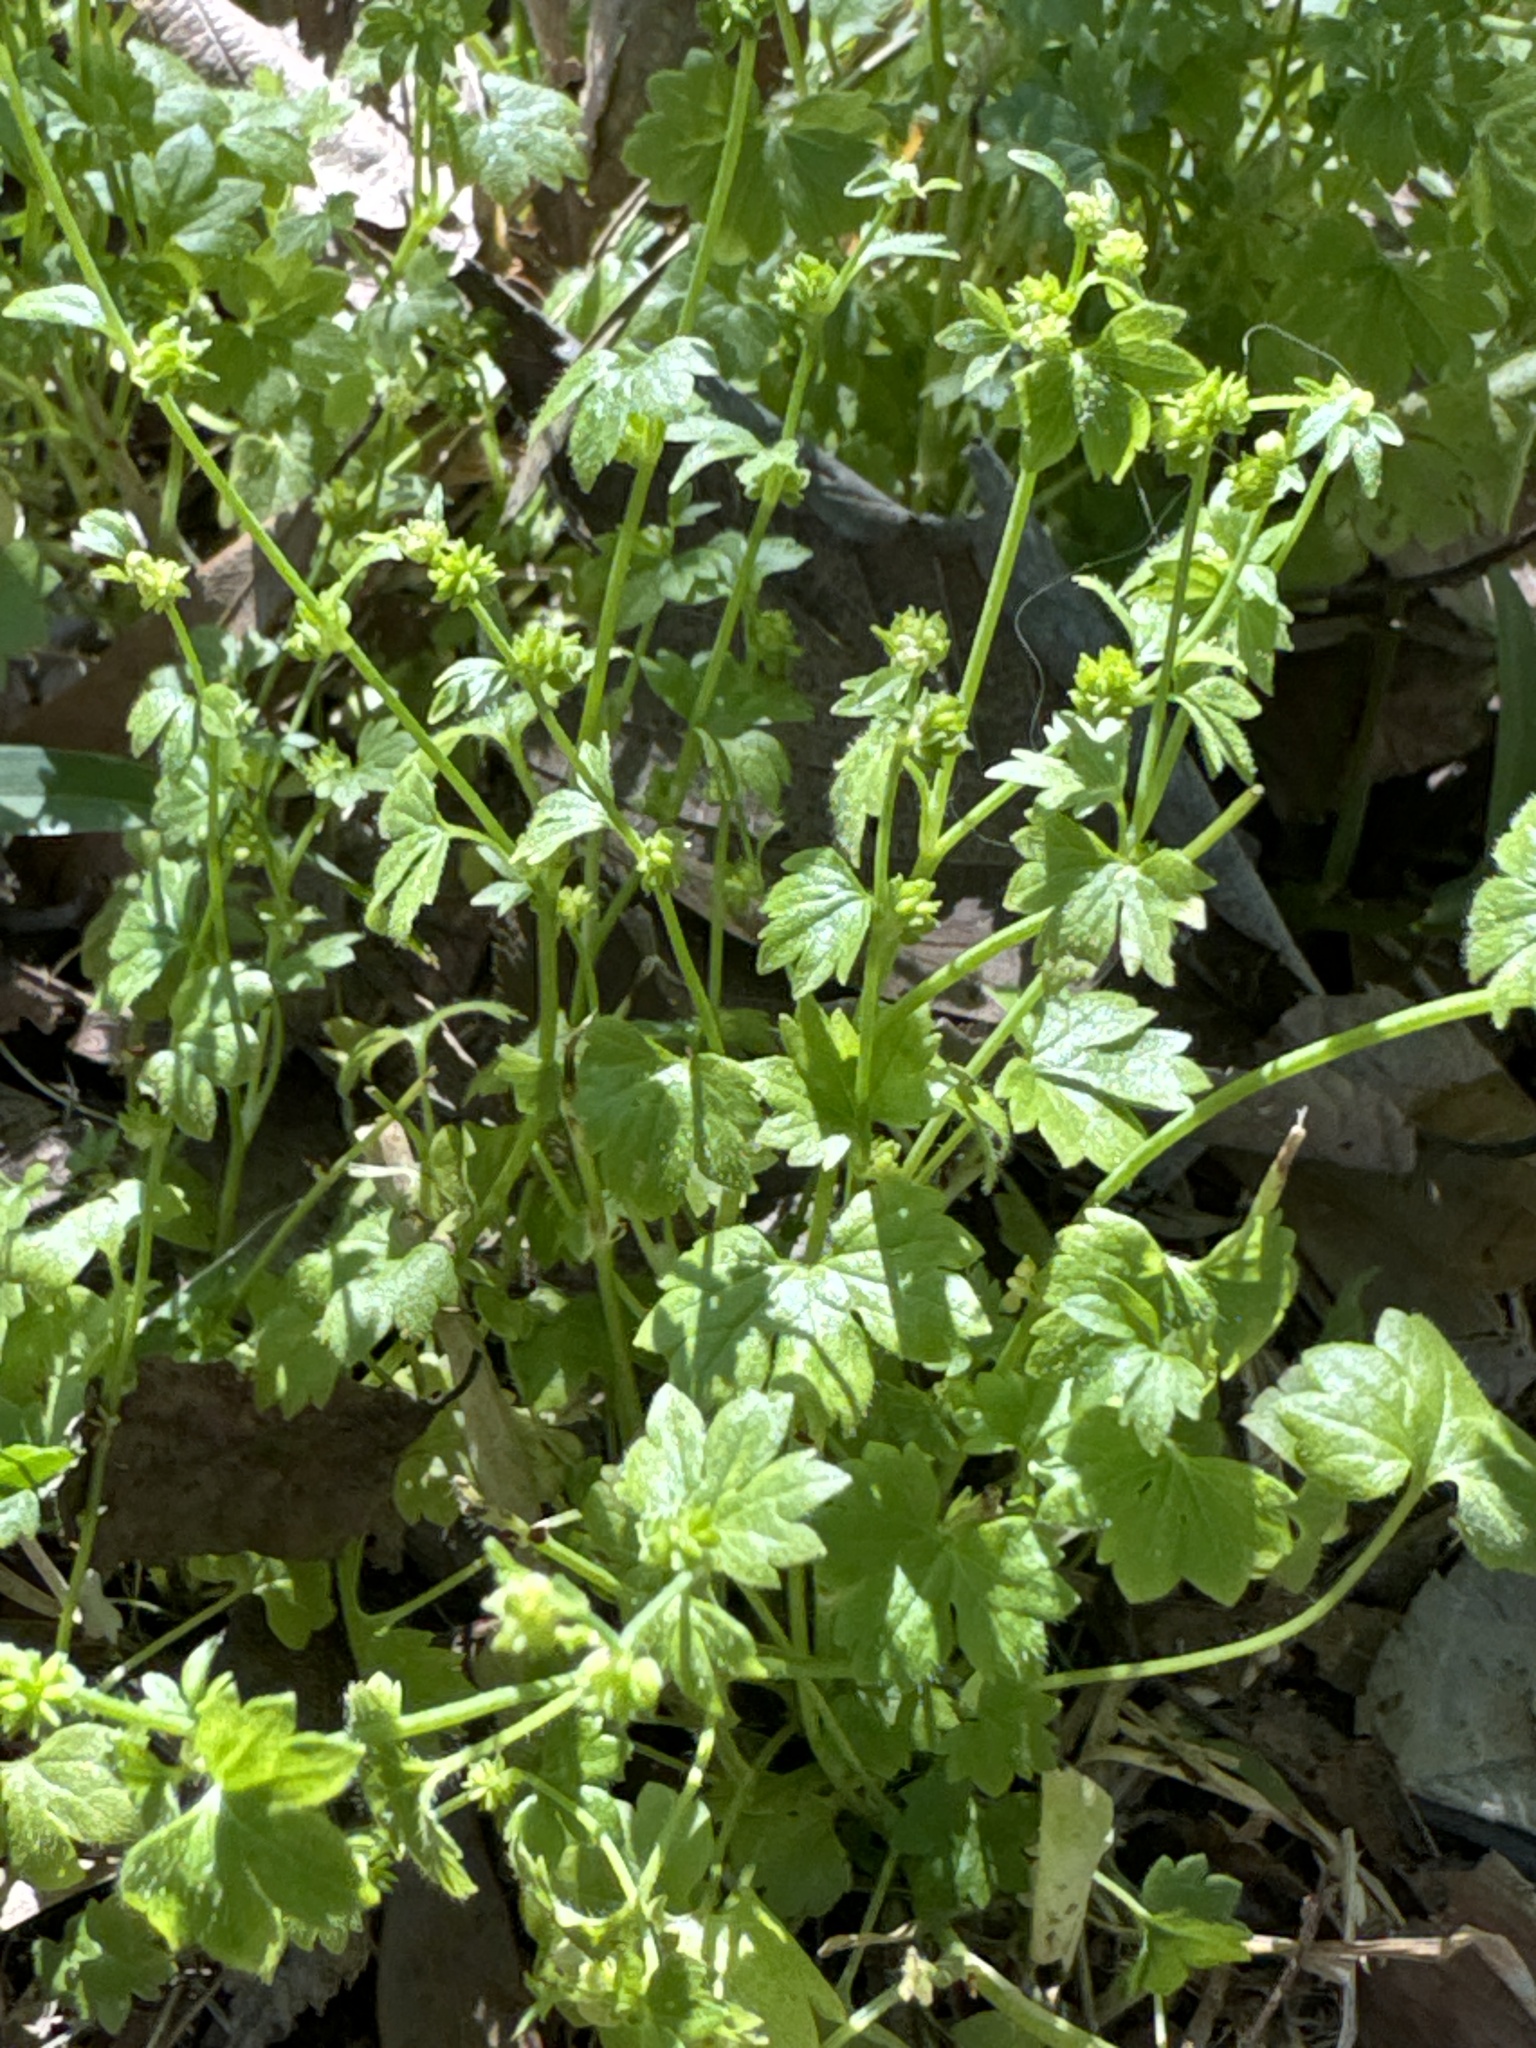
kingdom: Plantae
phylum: Tracheophyta
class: Magnoliopsida
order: Ranunculales
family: Ranunculaceae
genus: Ranunculus
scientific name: Ranunculus platensis
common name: Prairie buttercup
